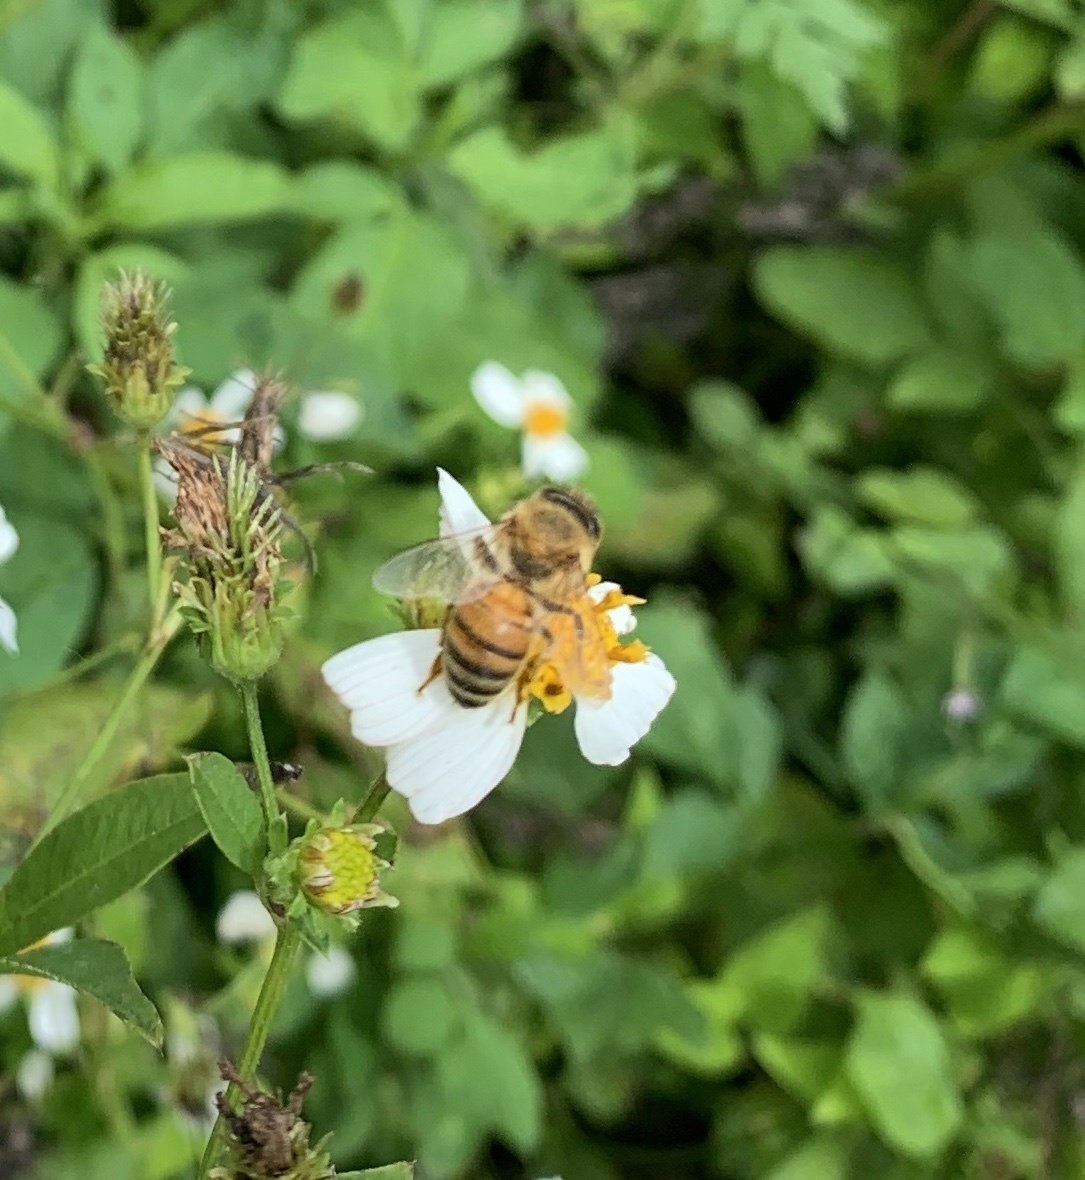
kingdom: Animalia
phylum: Arthropoda
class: Insecta
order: Hymenoptera
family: Apidae
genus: Apis
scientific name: Apis mellifera
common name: Honey bee
